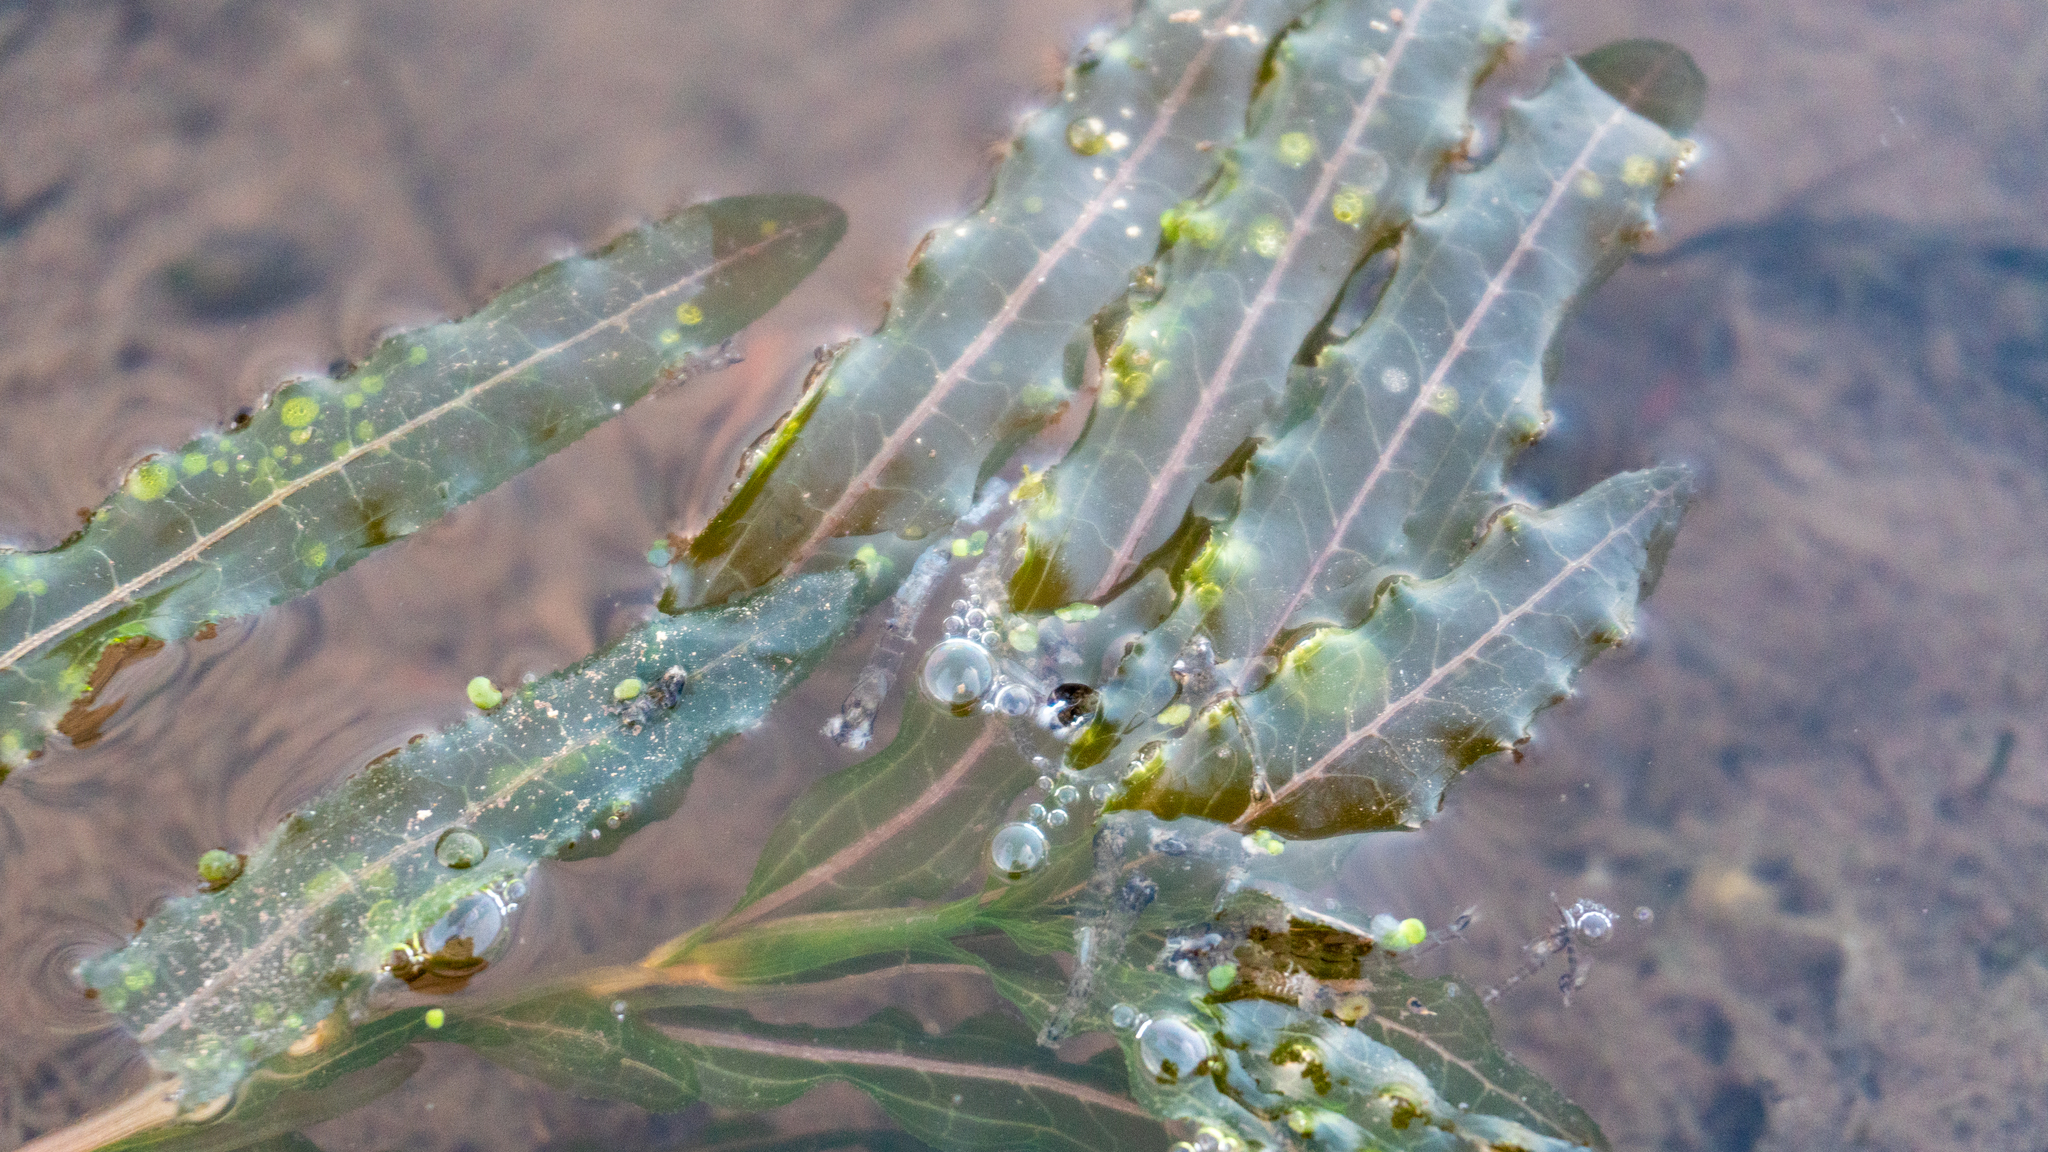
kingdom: Plantae
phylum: Tracheophyta
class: Liliopsida
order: Alismatales
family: Potamogetonaceae
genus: Potamogeton
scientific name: Potamogeton crispus
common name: Curled pondweed
